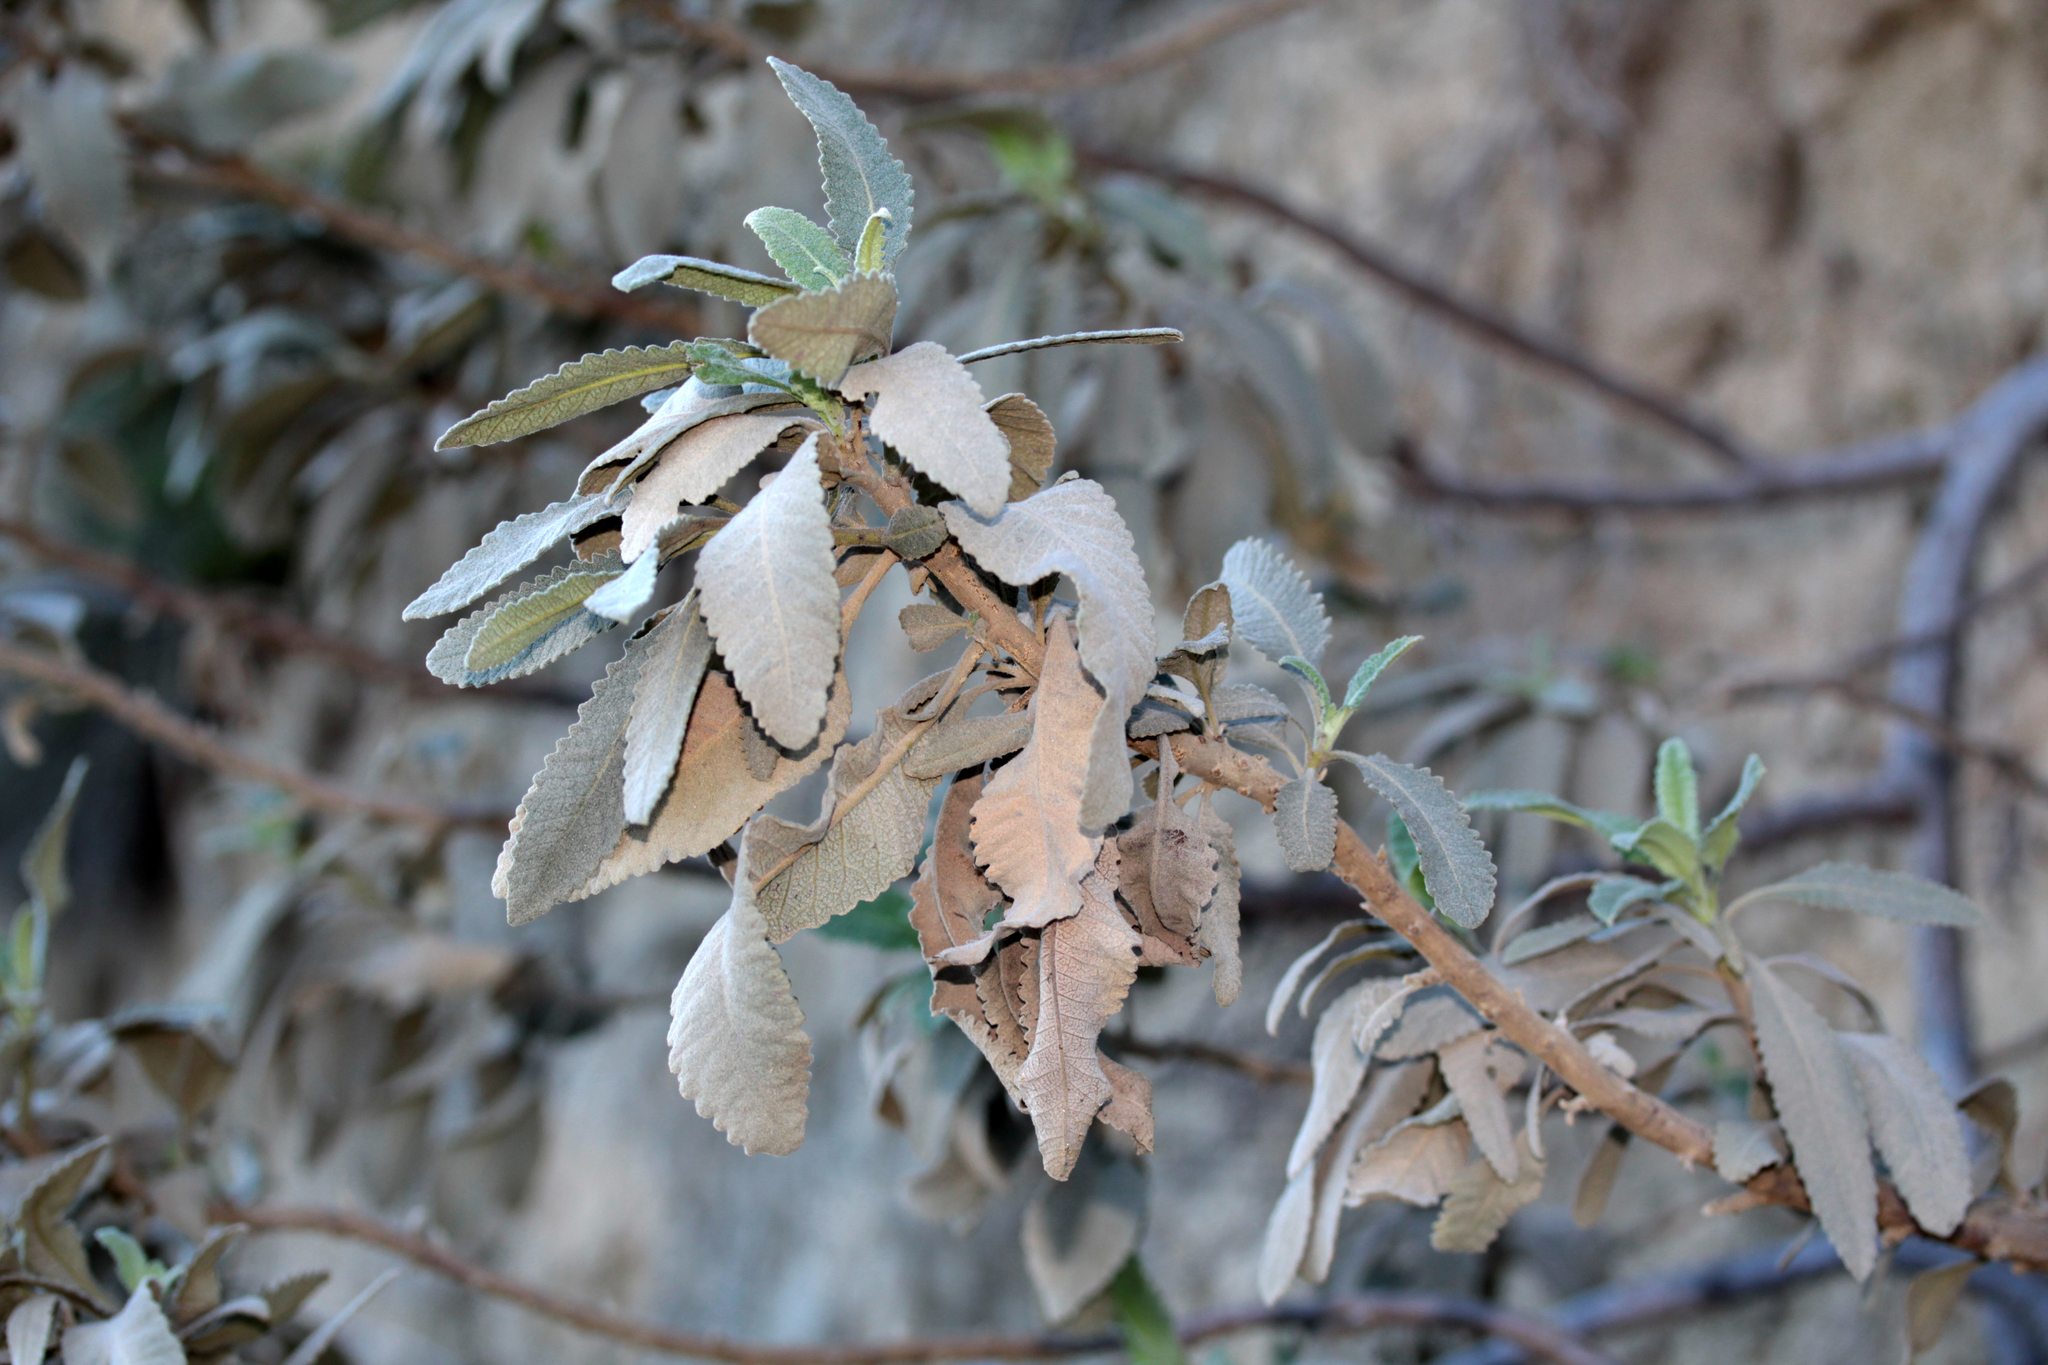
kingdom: Plantae
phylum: Tracheophyta
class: Magnoliopsida
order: Boraginales
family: Namaceae
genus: Eriodictyon
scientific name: Eriodictyon crassifolium
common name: Thick-leaf yerba-santa
